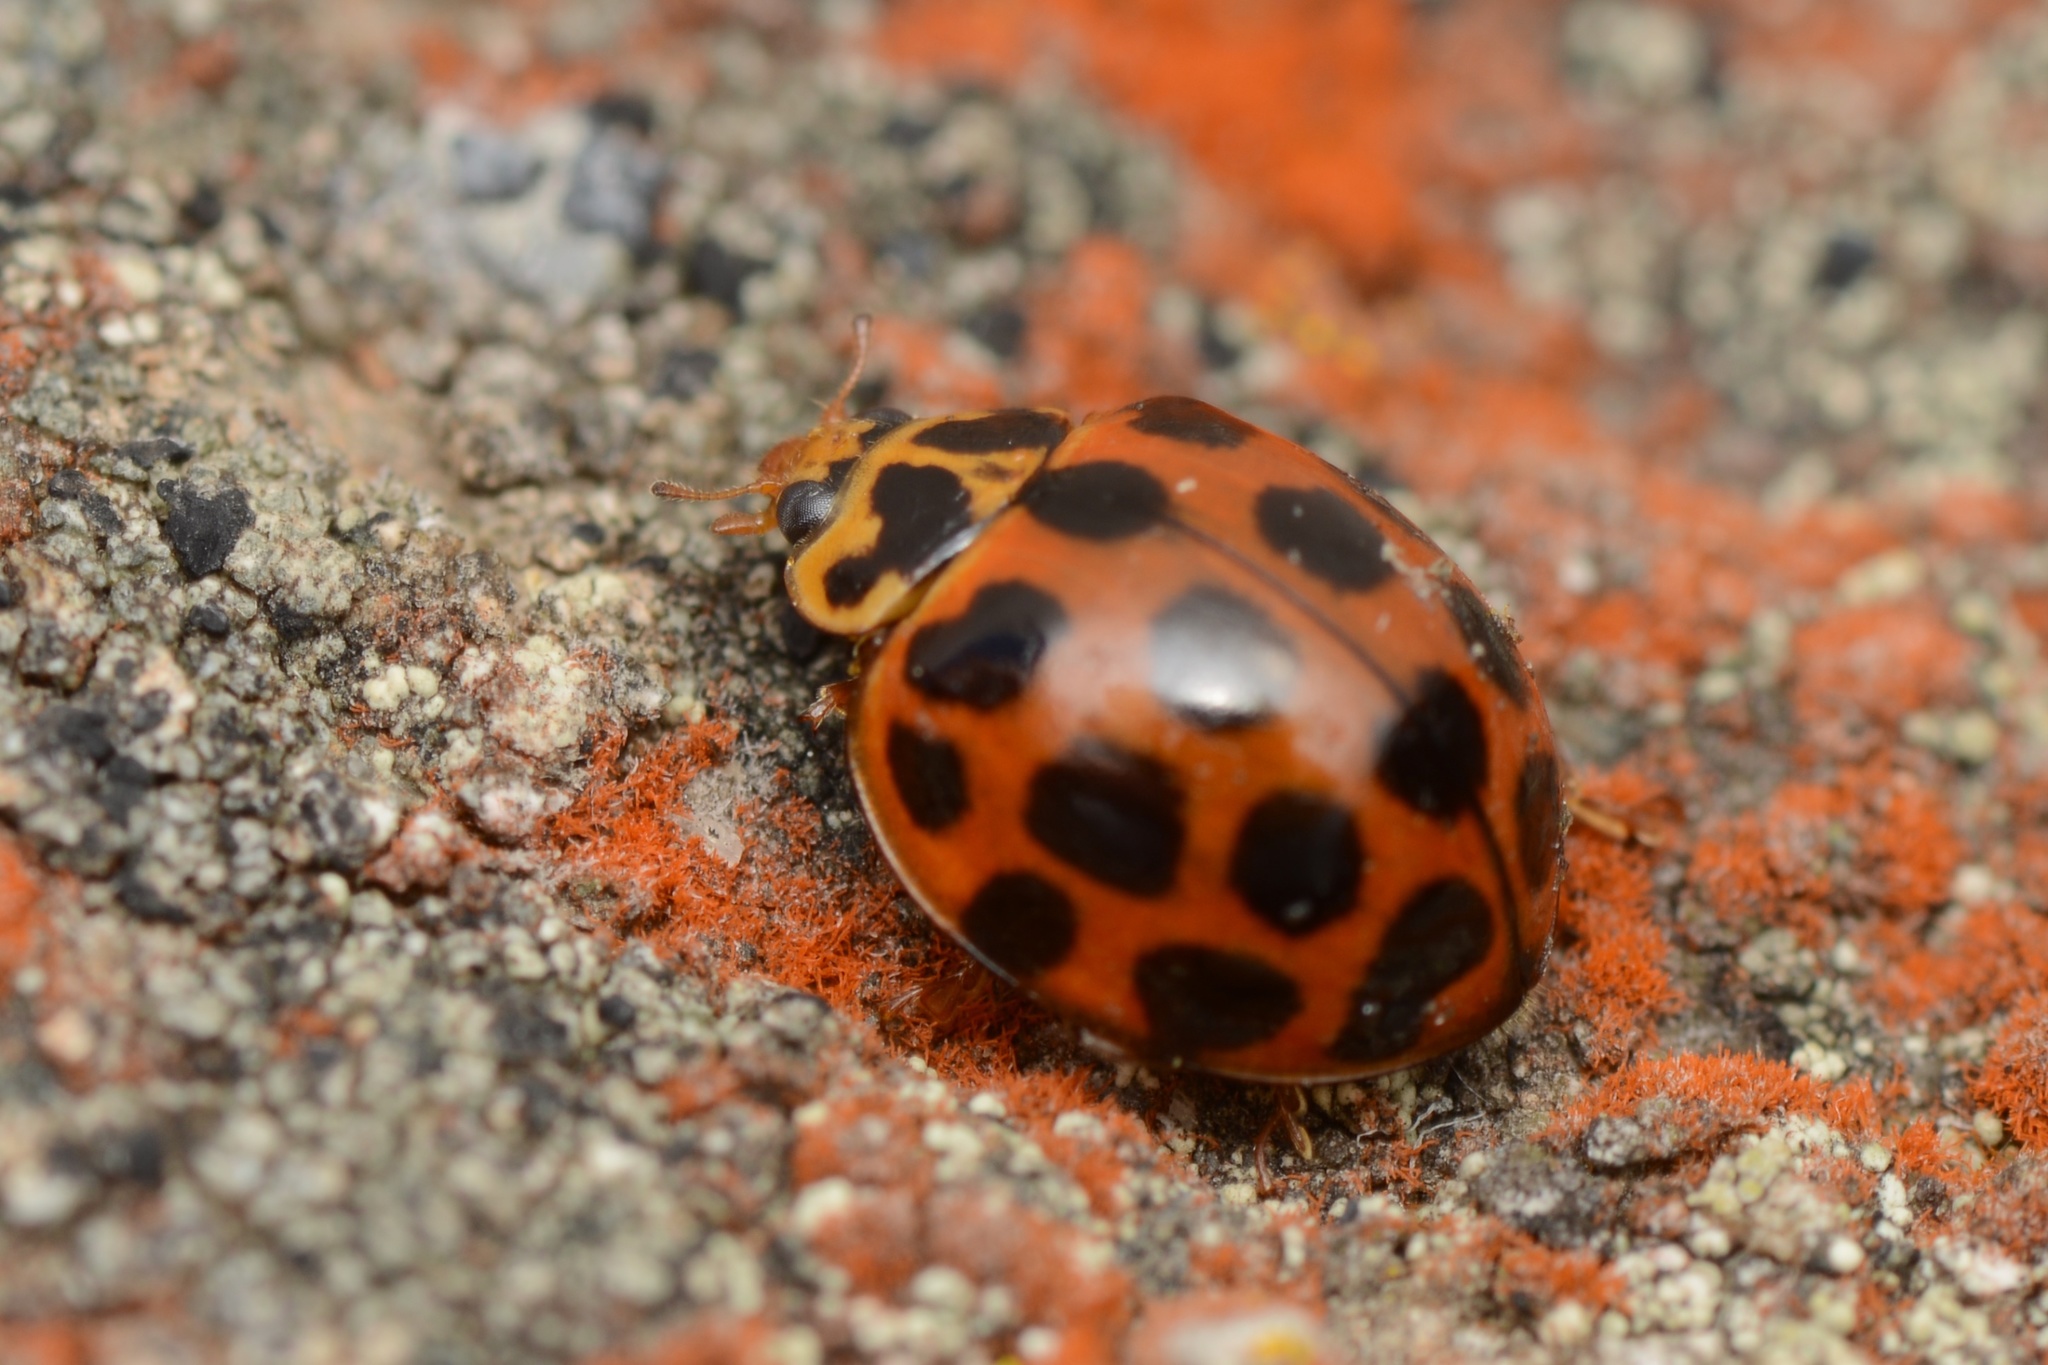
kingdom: Animalia
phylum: Arthropoda
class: Insecta
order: Coleoptera
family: Coccinellidae
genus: Harmonia
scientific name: Harmonia conformis
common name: Common spotted ladybird beetle
